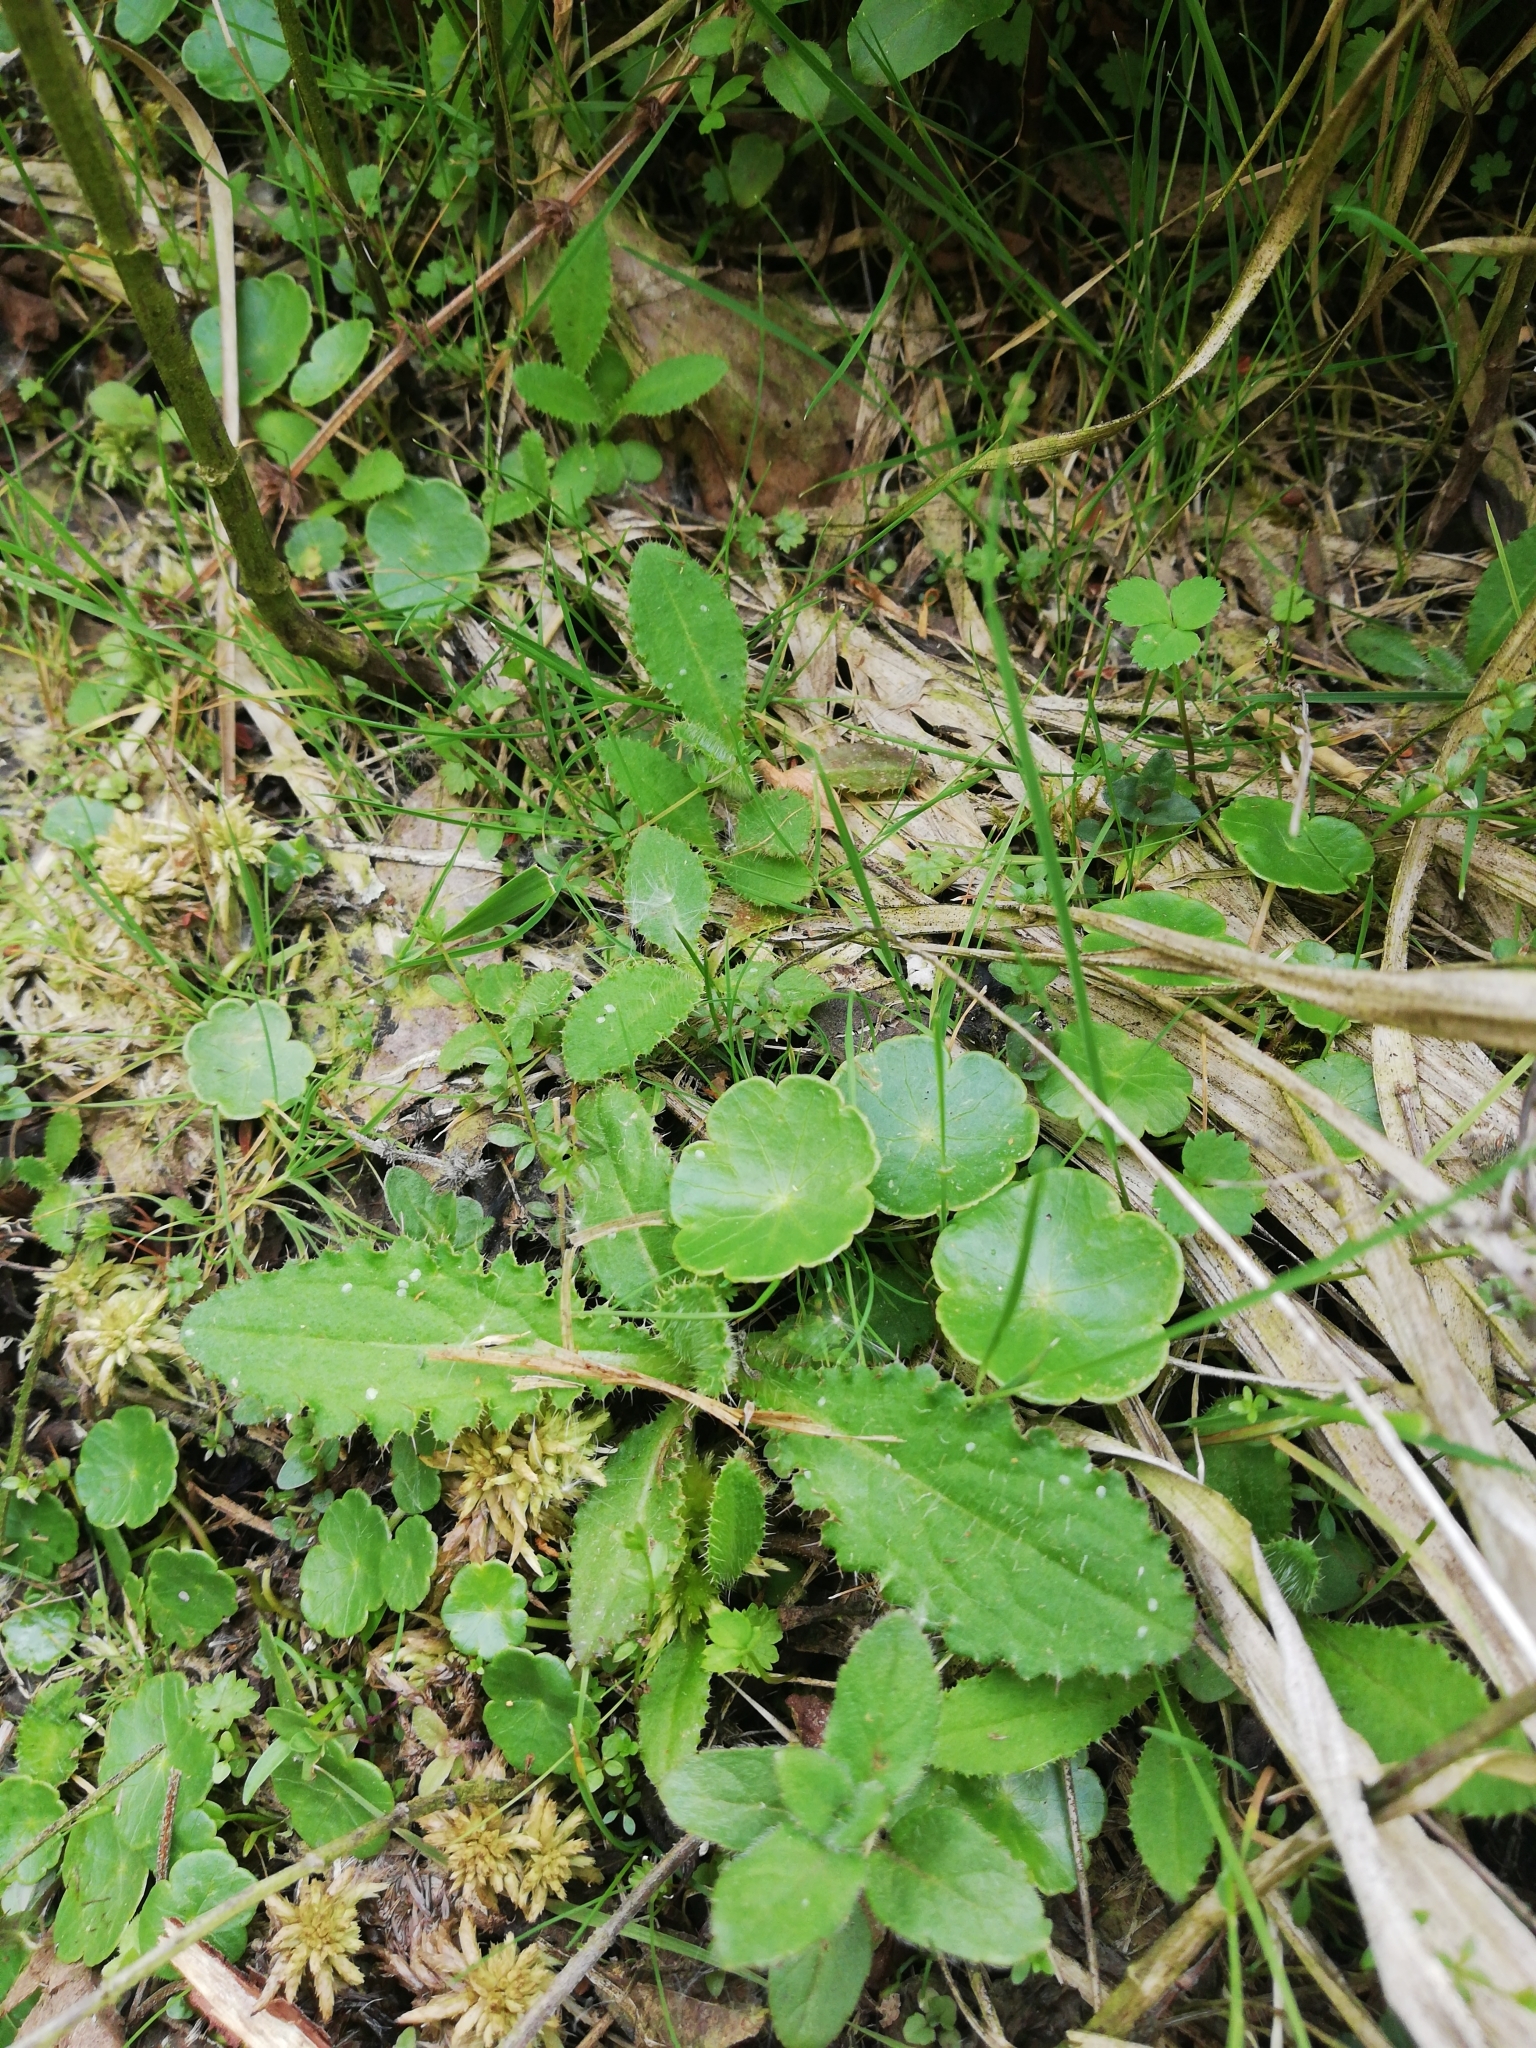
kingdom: Plantae
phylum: Tracheophyta
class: Magnoliopsida
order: Apiales
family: Araliaceae
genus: Hydrocotyle
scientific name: Hydrocotyle vulgaris
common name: Marsh pennywort
